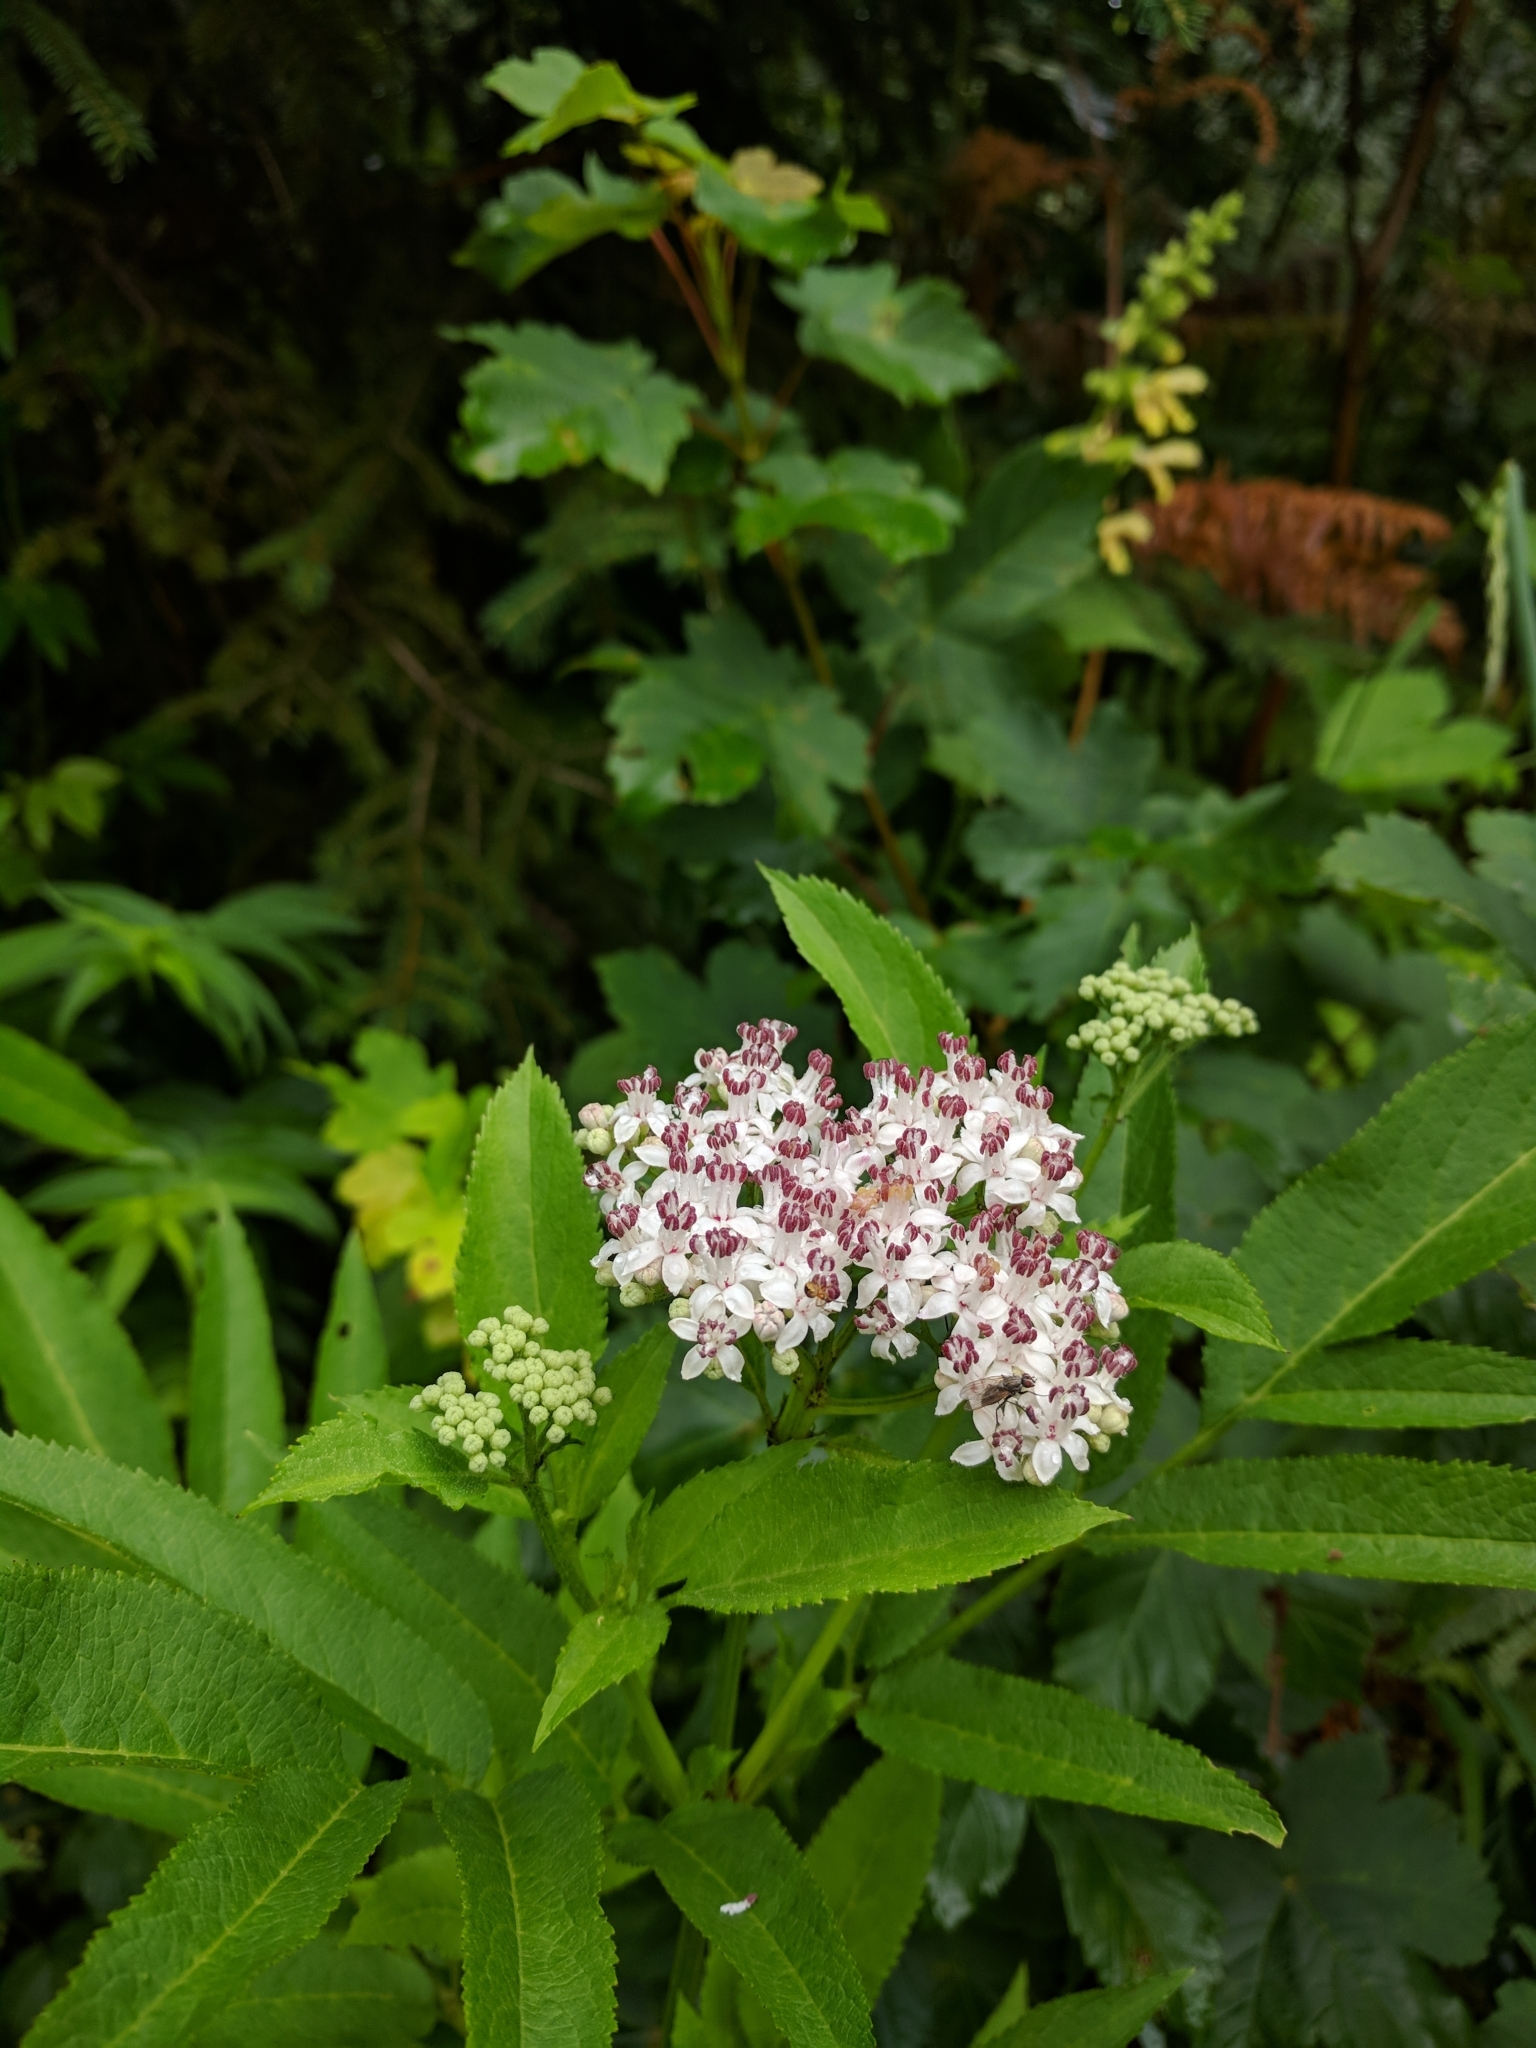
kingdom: Plantae
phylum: Tracheophyta
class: Magnoliopsida
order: Dipsacales
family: Viburnaceae
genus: Sambucus
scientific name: Sambucus ebulus
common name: Dwarf elder
